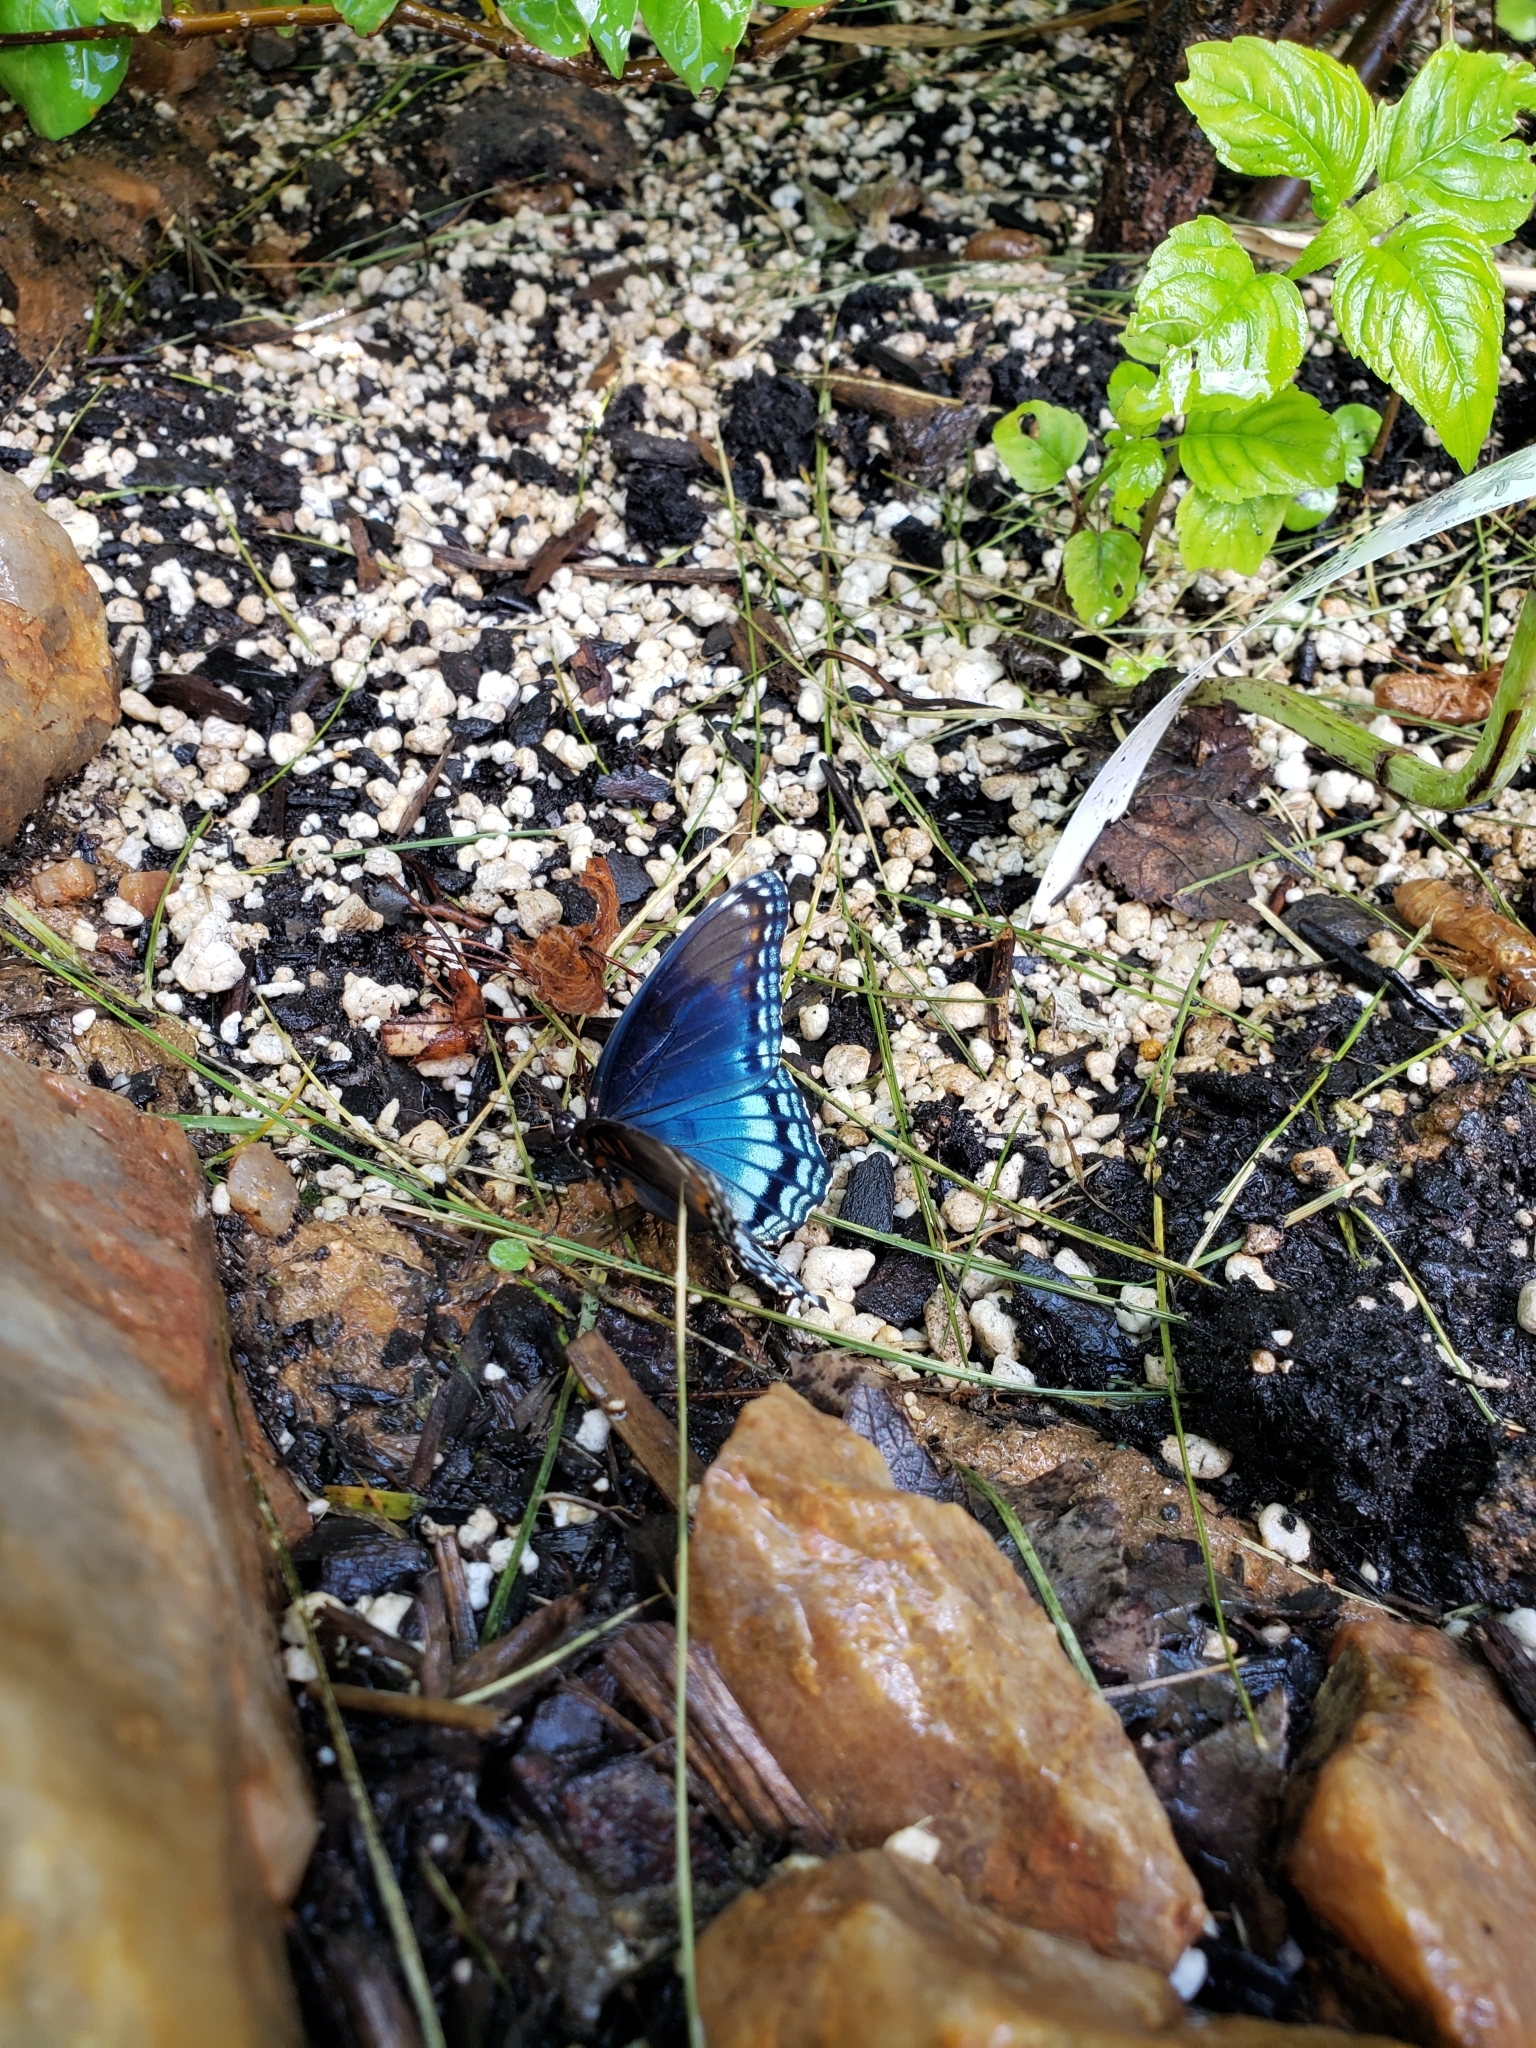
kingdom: Animalia
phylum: Arthropoda
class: Insecta
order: Lepidoptera
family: Nymphalidae
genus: Limenitis
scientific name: Limenitis astyanax
